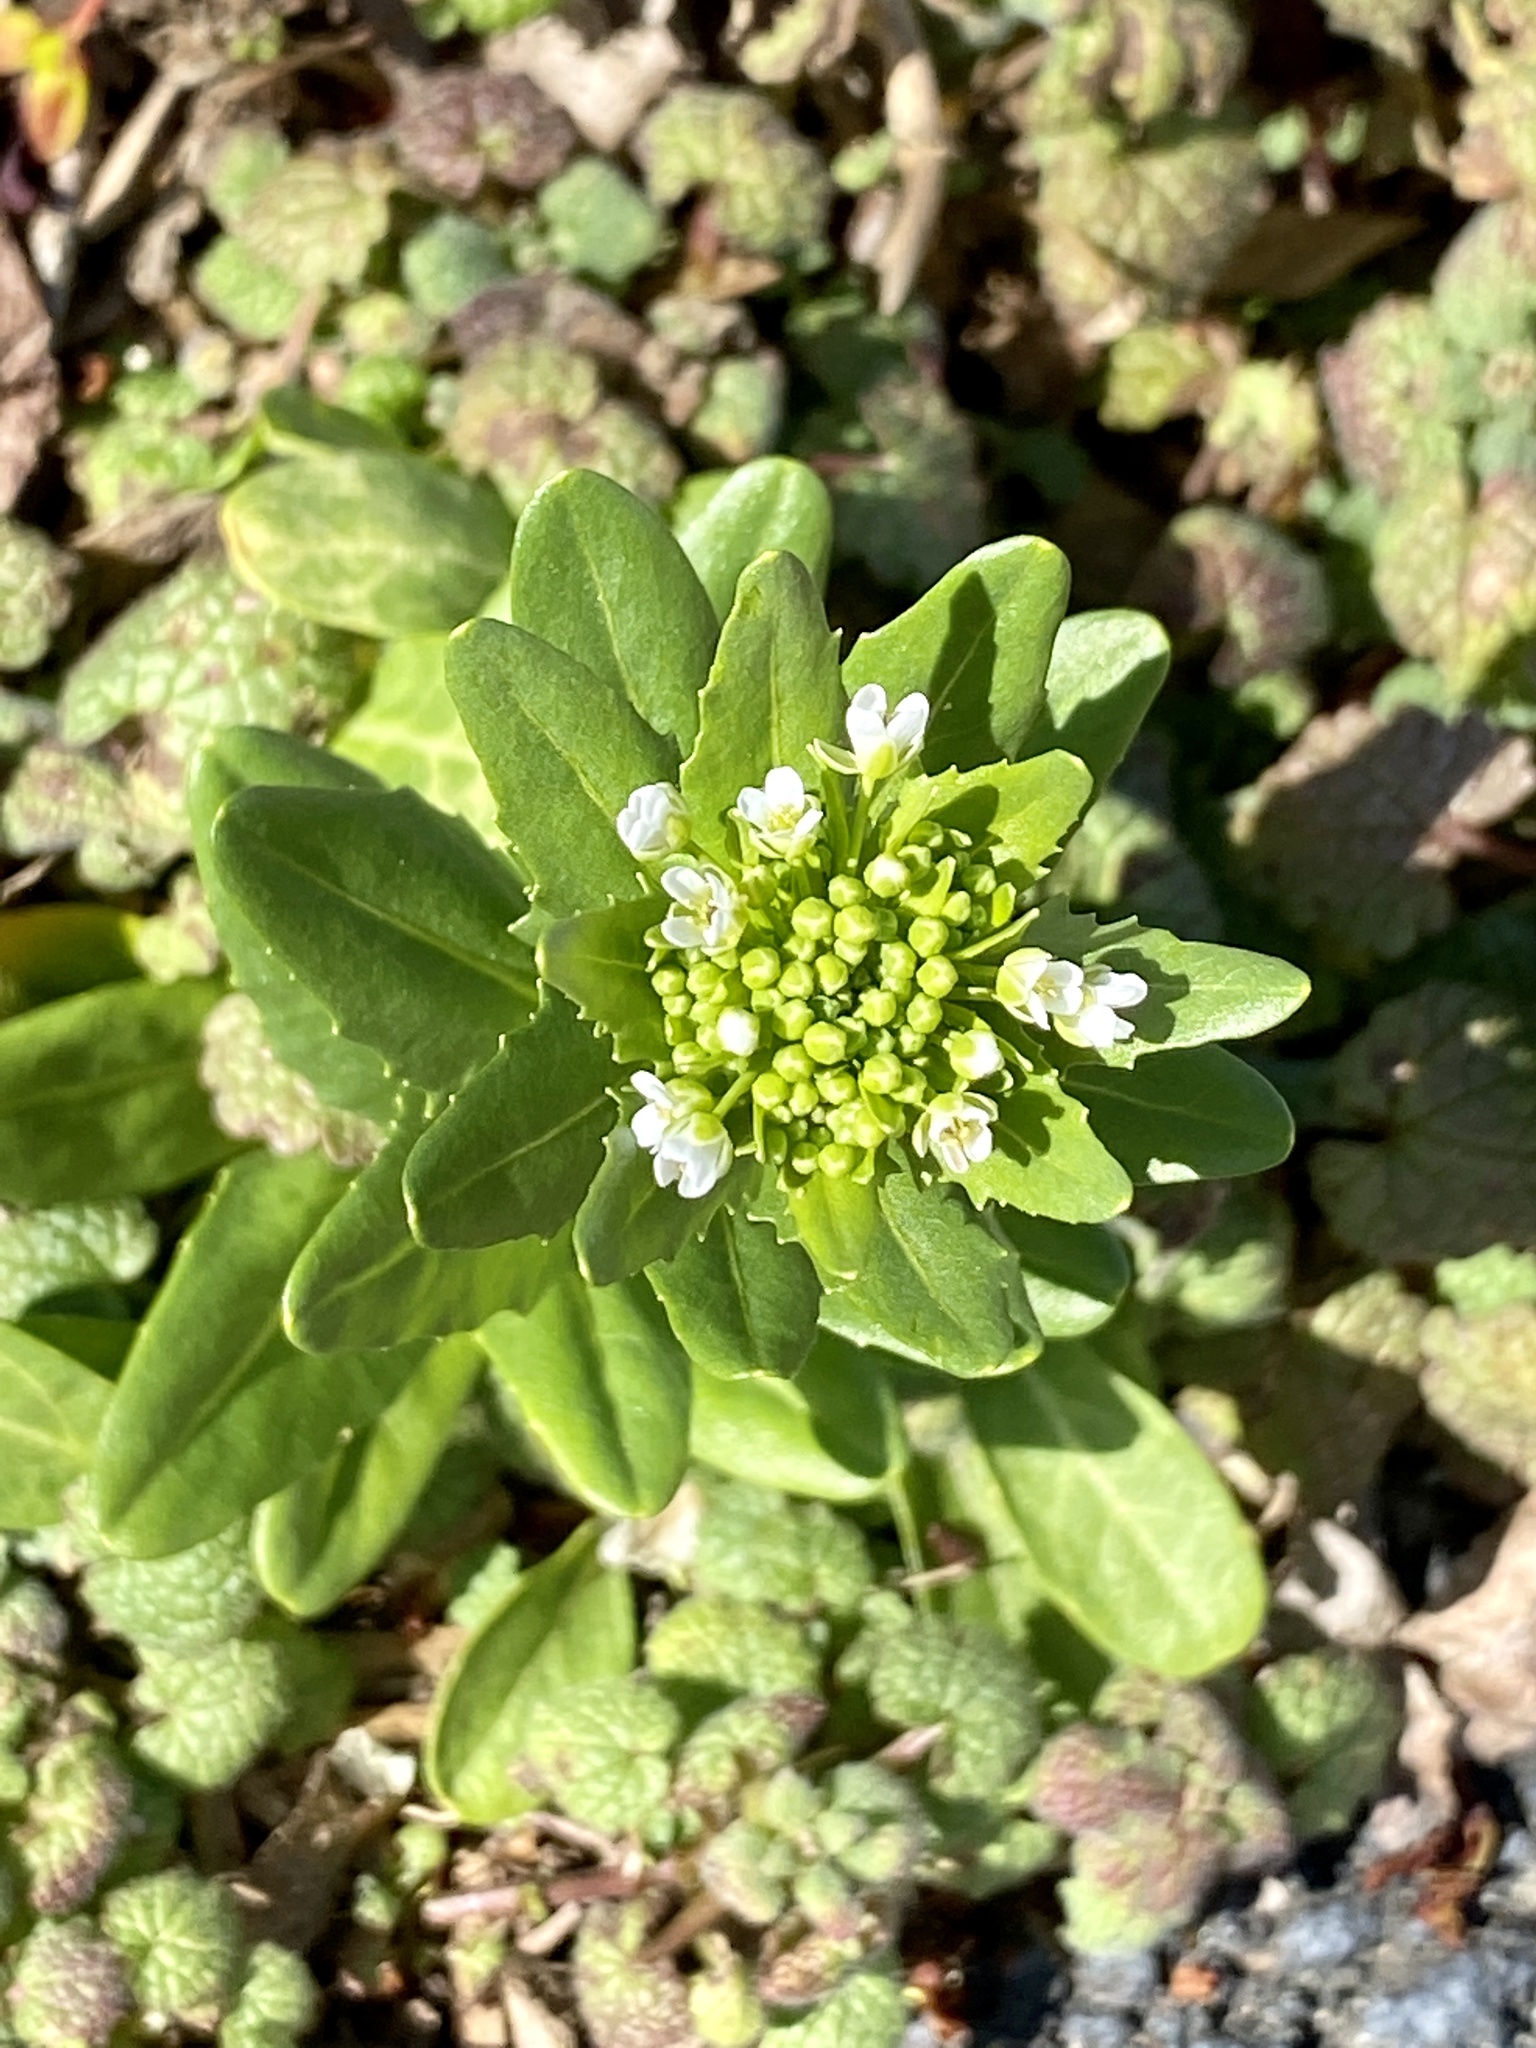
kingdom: Plantae
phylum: Tracheophyta
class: Magnoliopsida
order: Brassicales
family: Brassicaceae
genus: Thlaspi
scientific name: Thlaspi arvense
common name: Field pennycress
